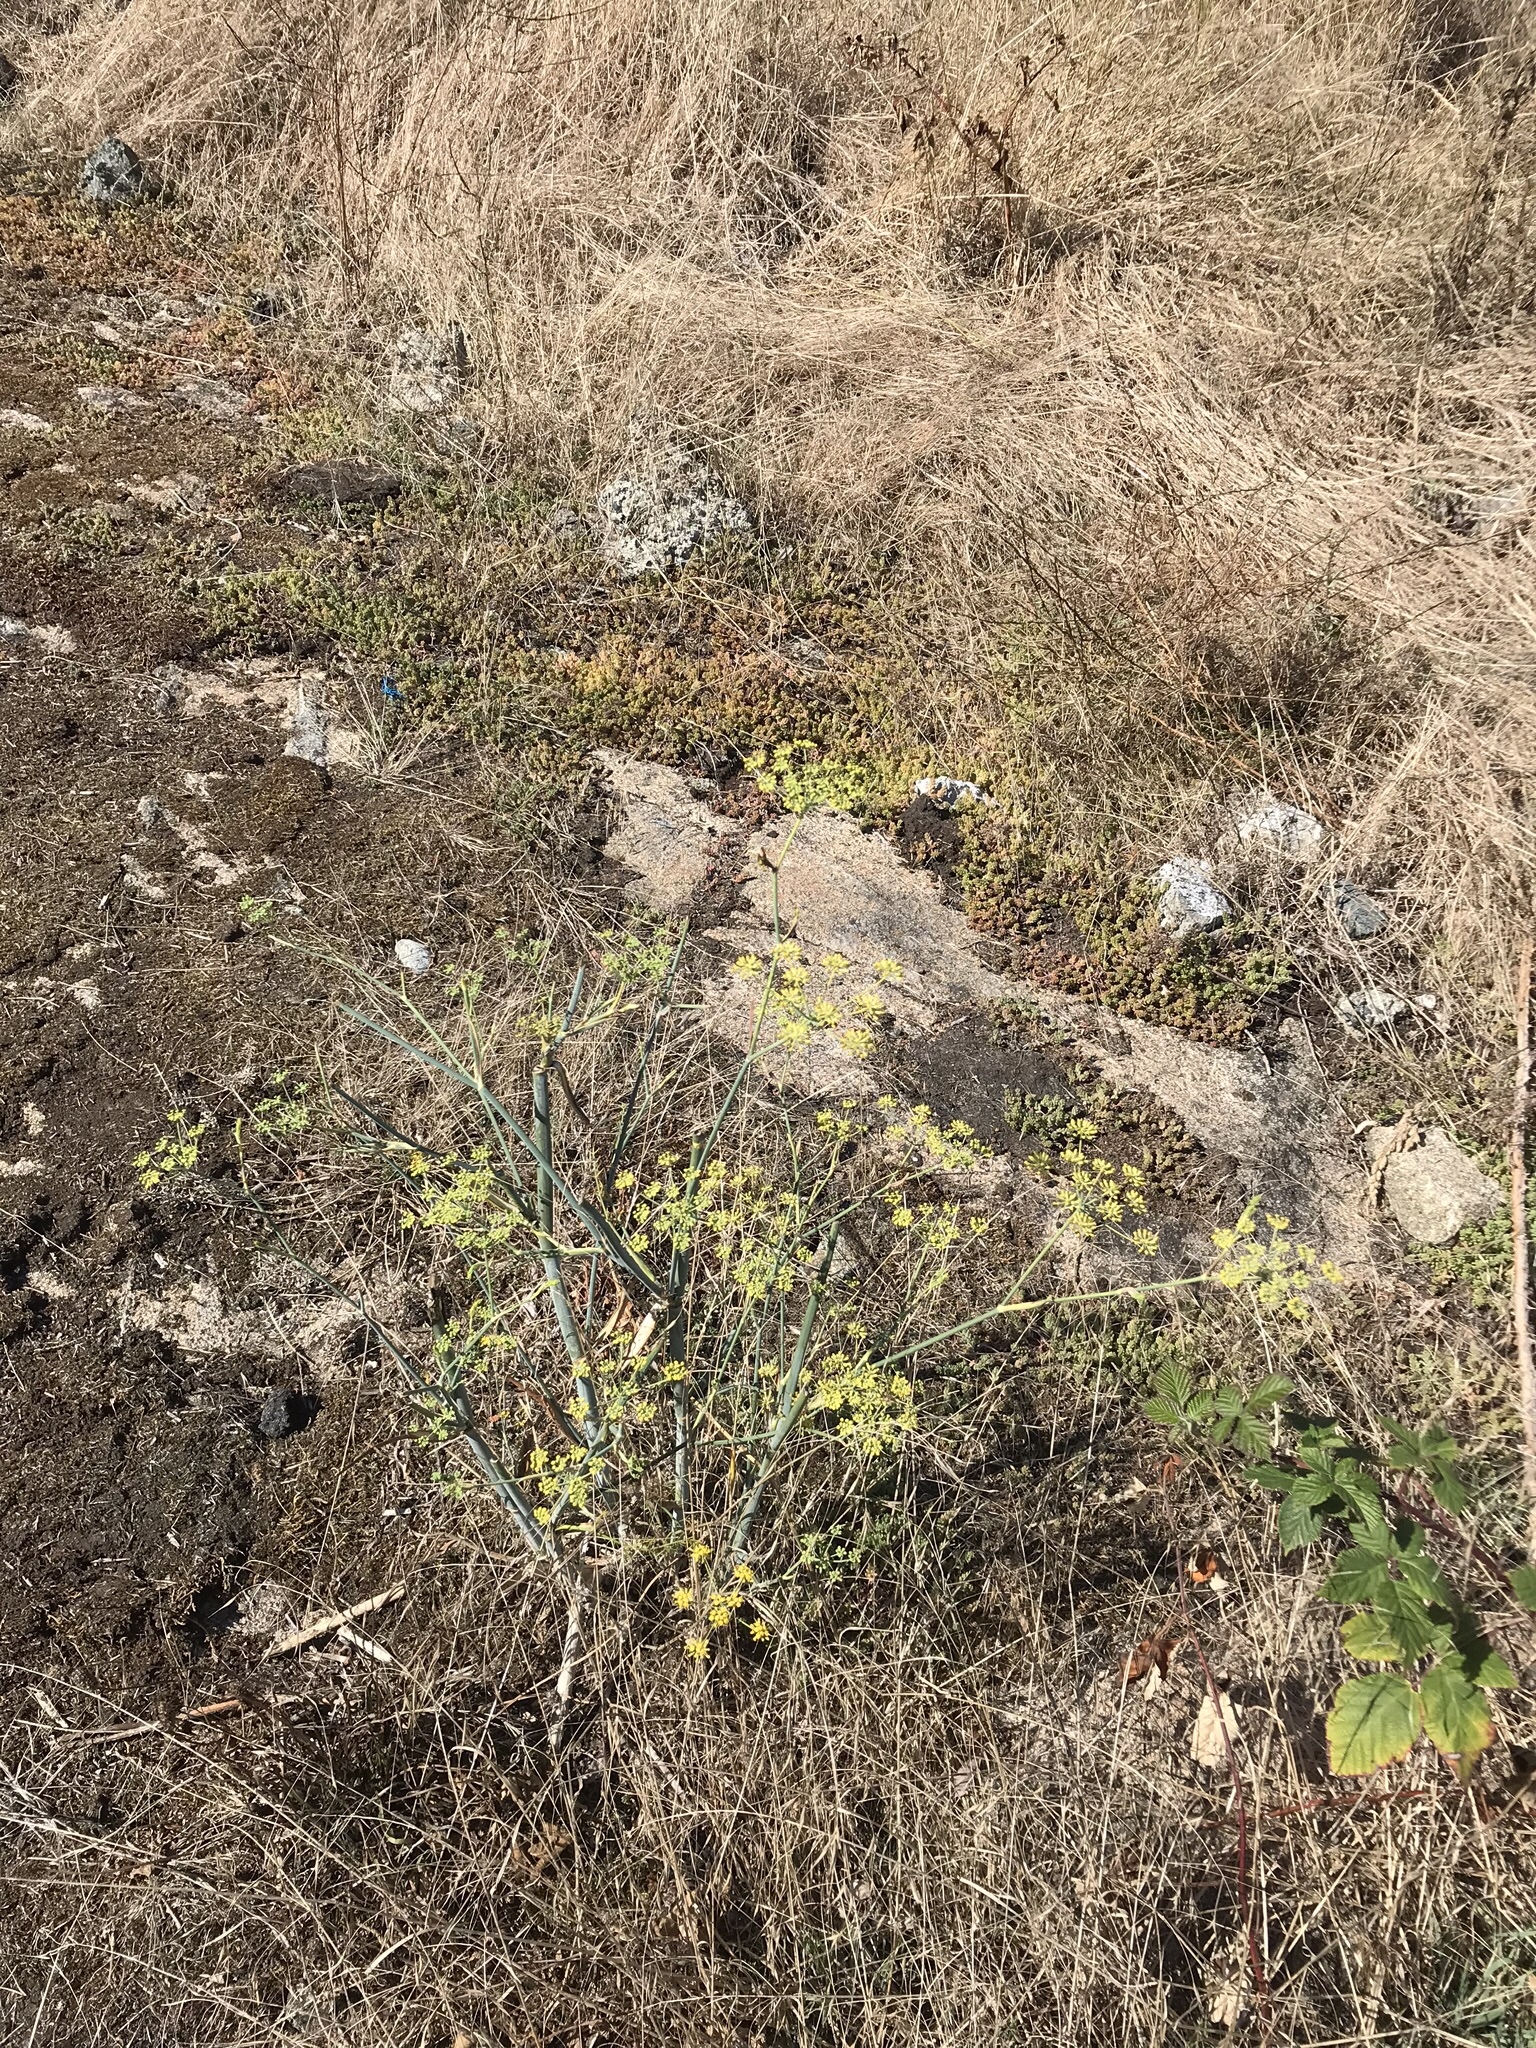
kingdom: Plantae
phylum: Tracheophyta
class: Magnoliopsida
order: Apiales
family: Apiaceae
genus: Foeniculum
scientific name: Foeniculum vulgare
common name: Fennel
